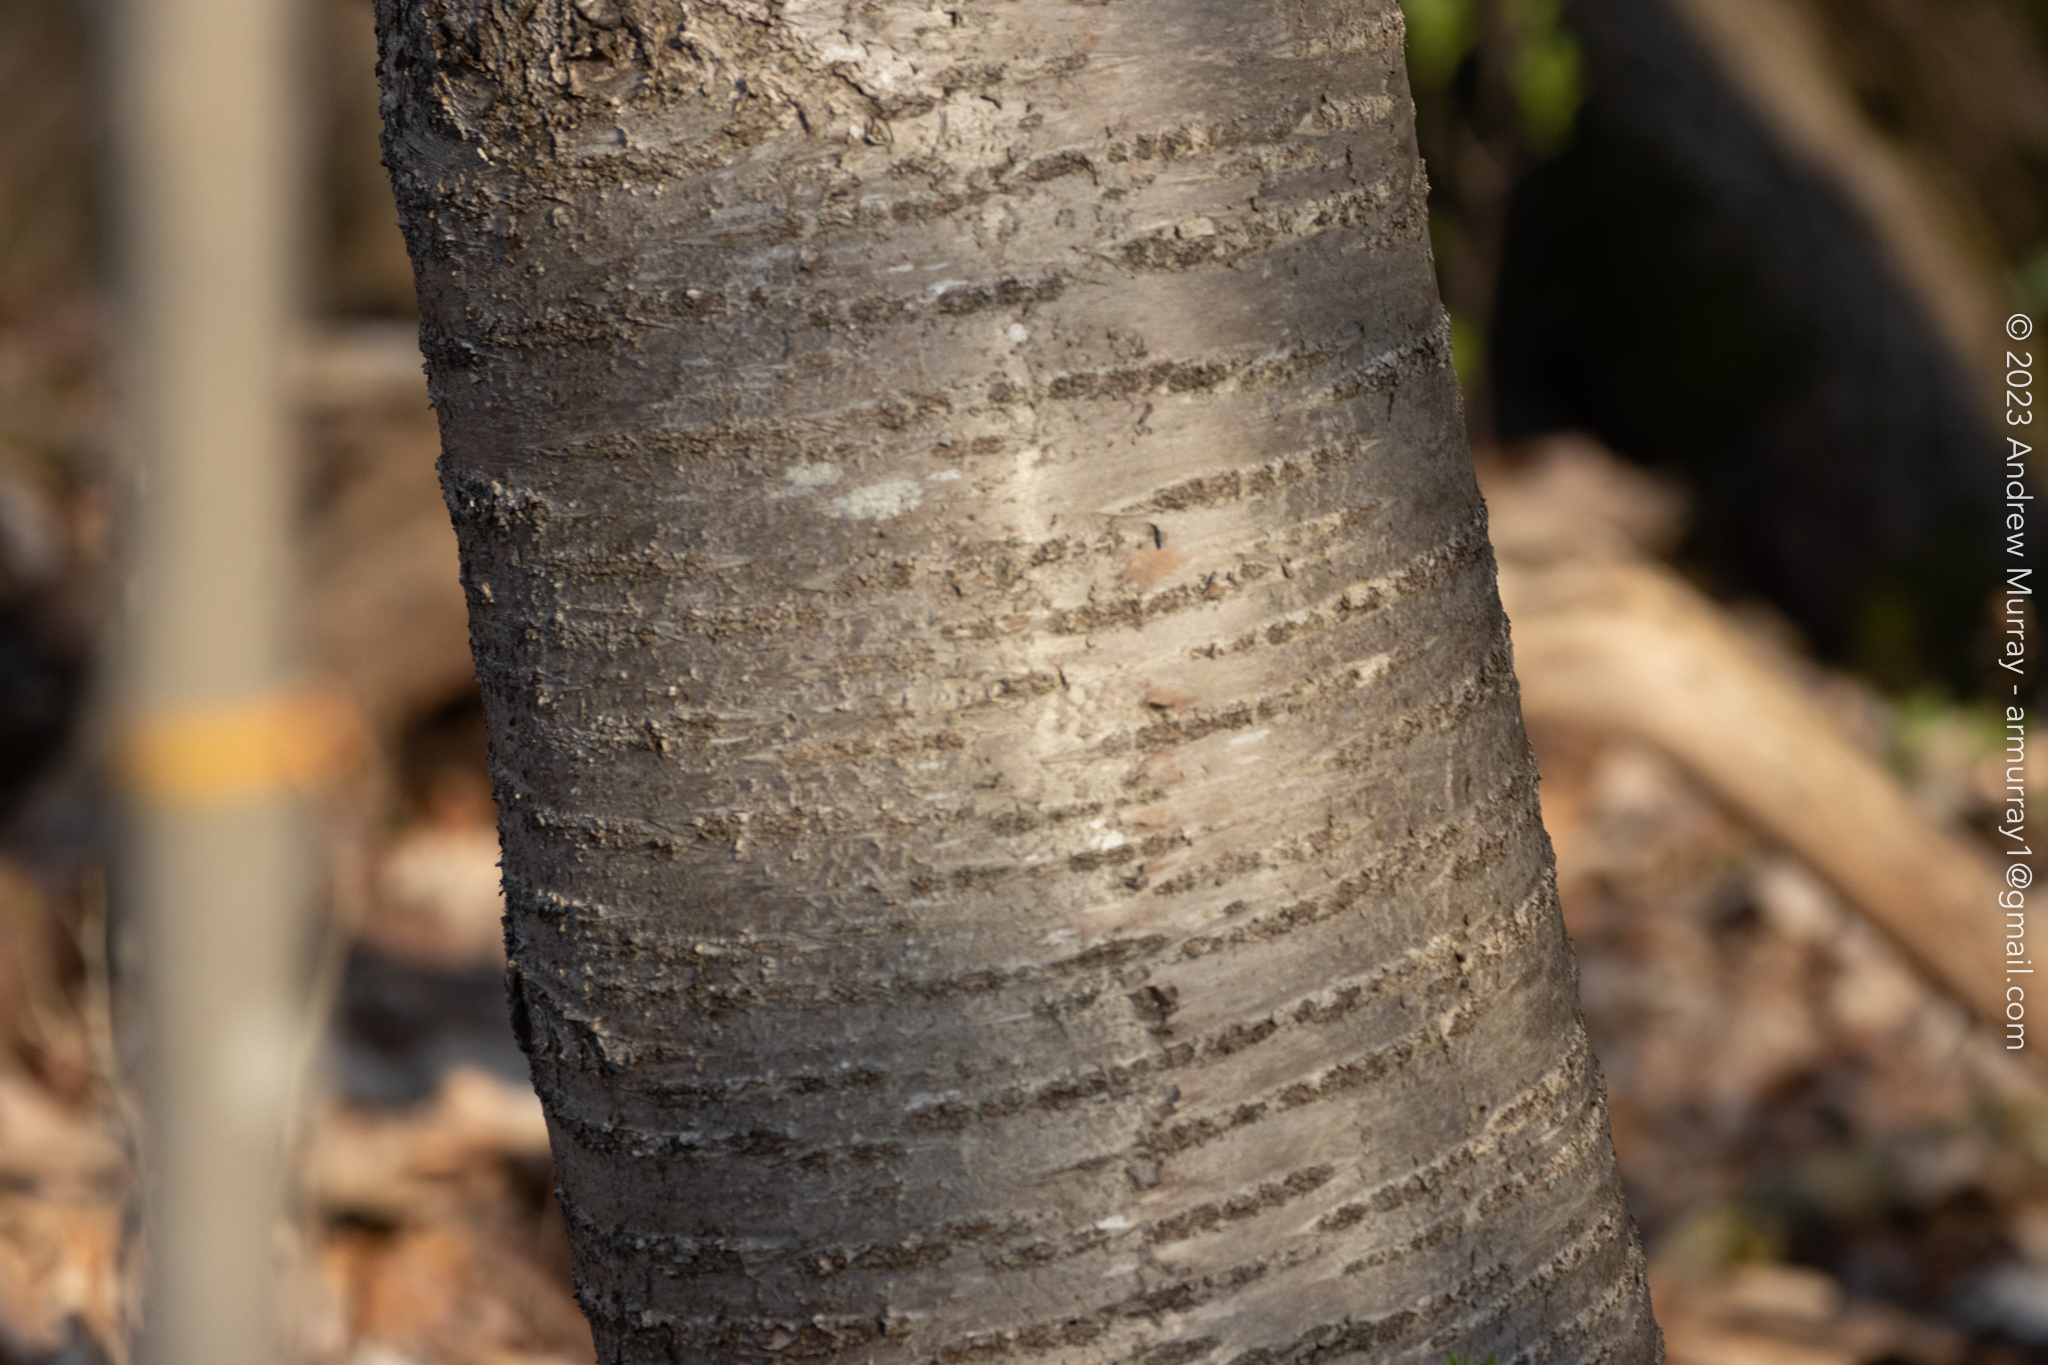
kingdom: Plantae
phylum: Tracheophyta
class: Magnoliopsida
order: Rosales
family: Rosaceae
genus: Prunus
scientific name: Prunus avium
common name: Sweet cherry
